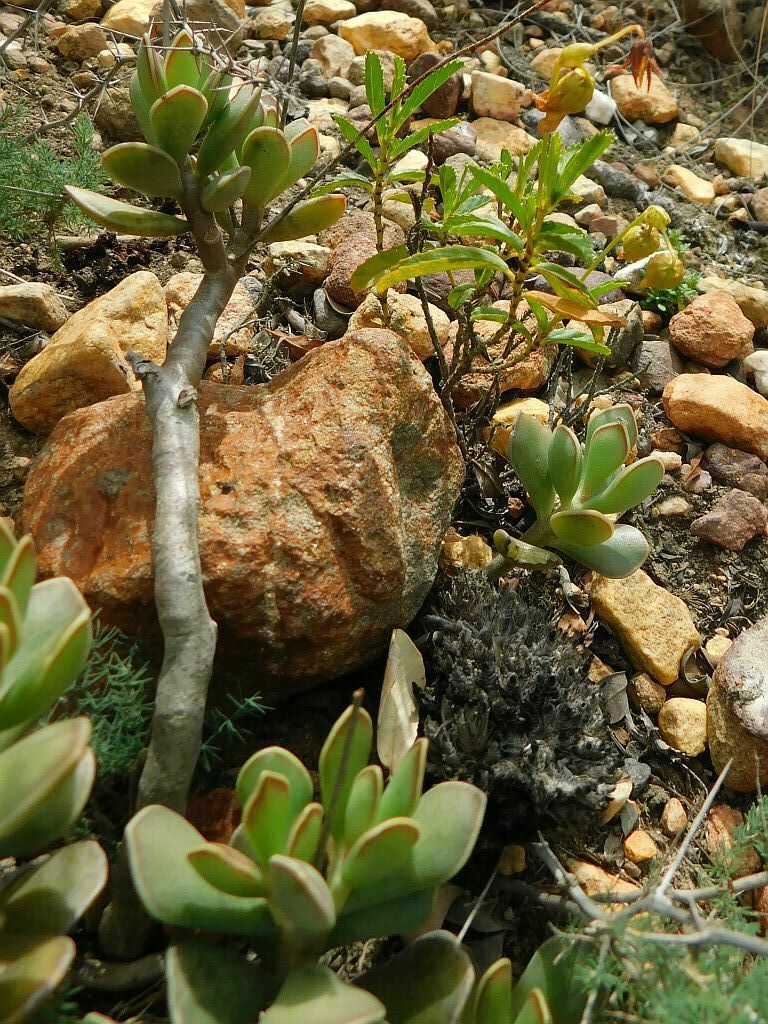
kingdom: Plantae
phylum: Tracheophyta
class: Magnoliopsida
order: Saxifragales
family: Crassulaceae
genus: Adromischus
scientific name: Adromischus caryophyllaceus
